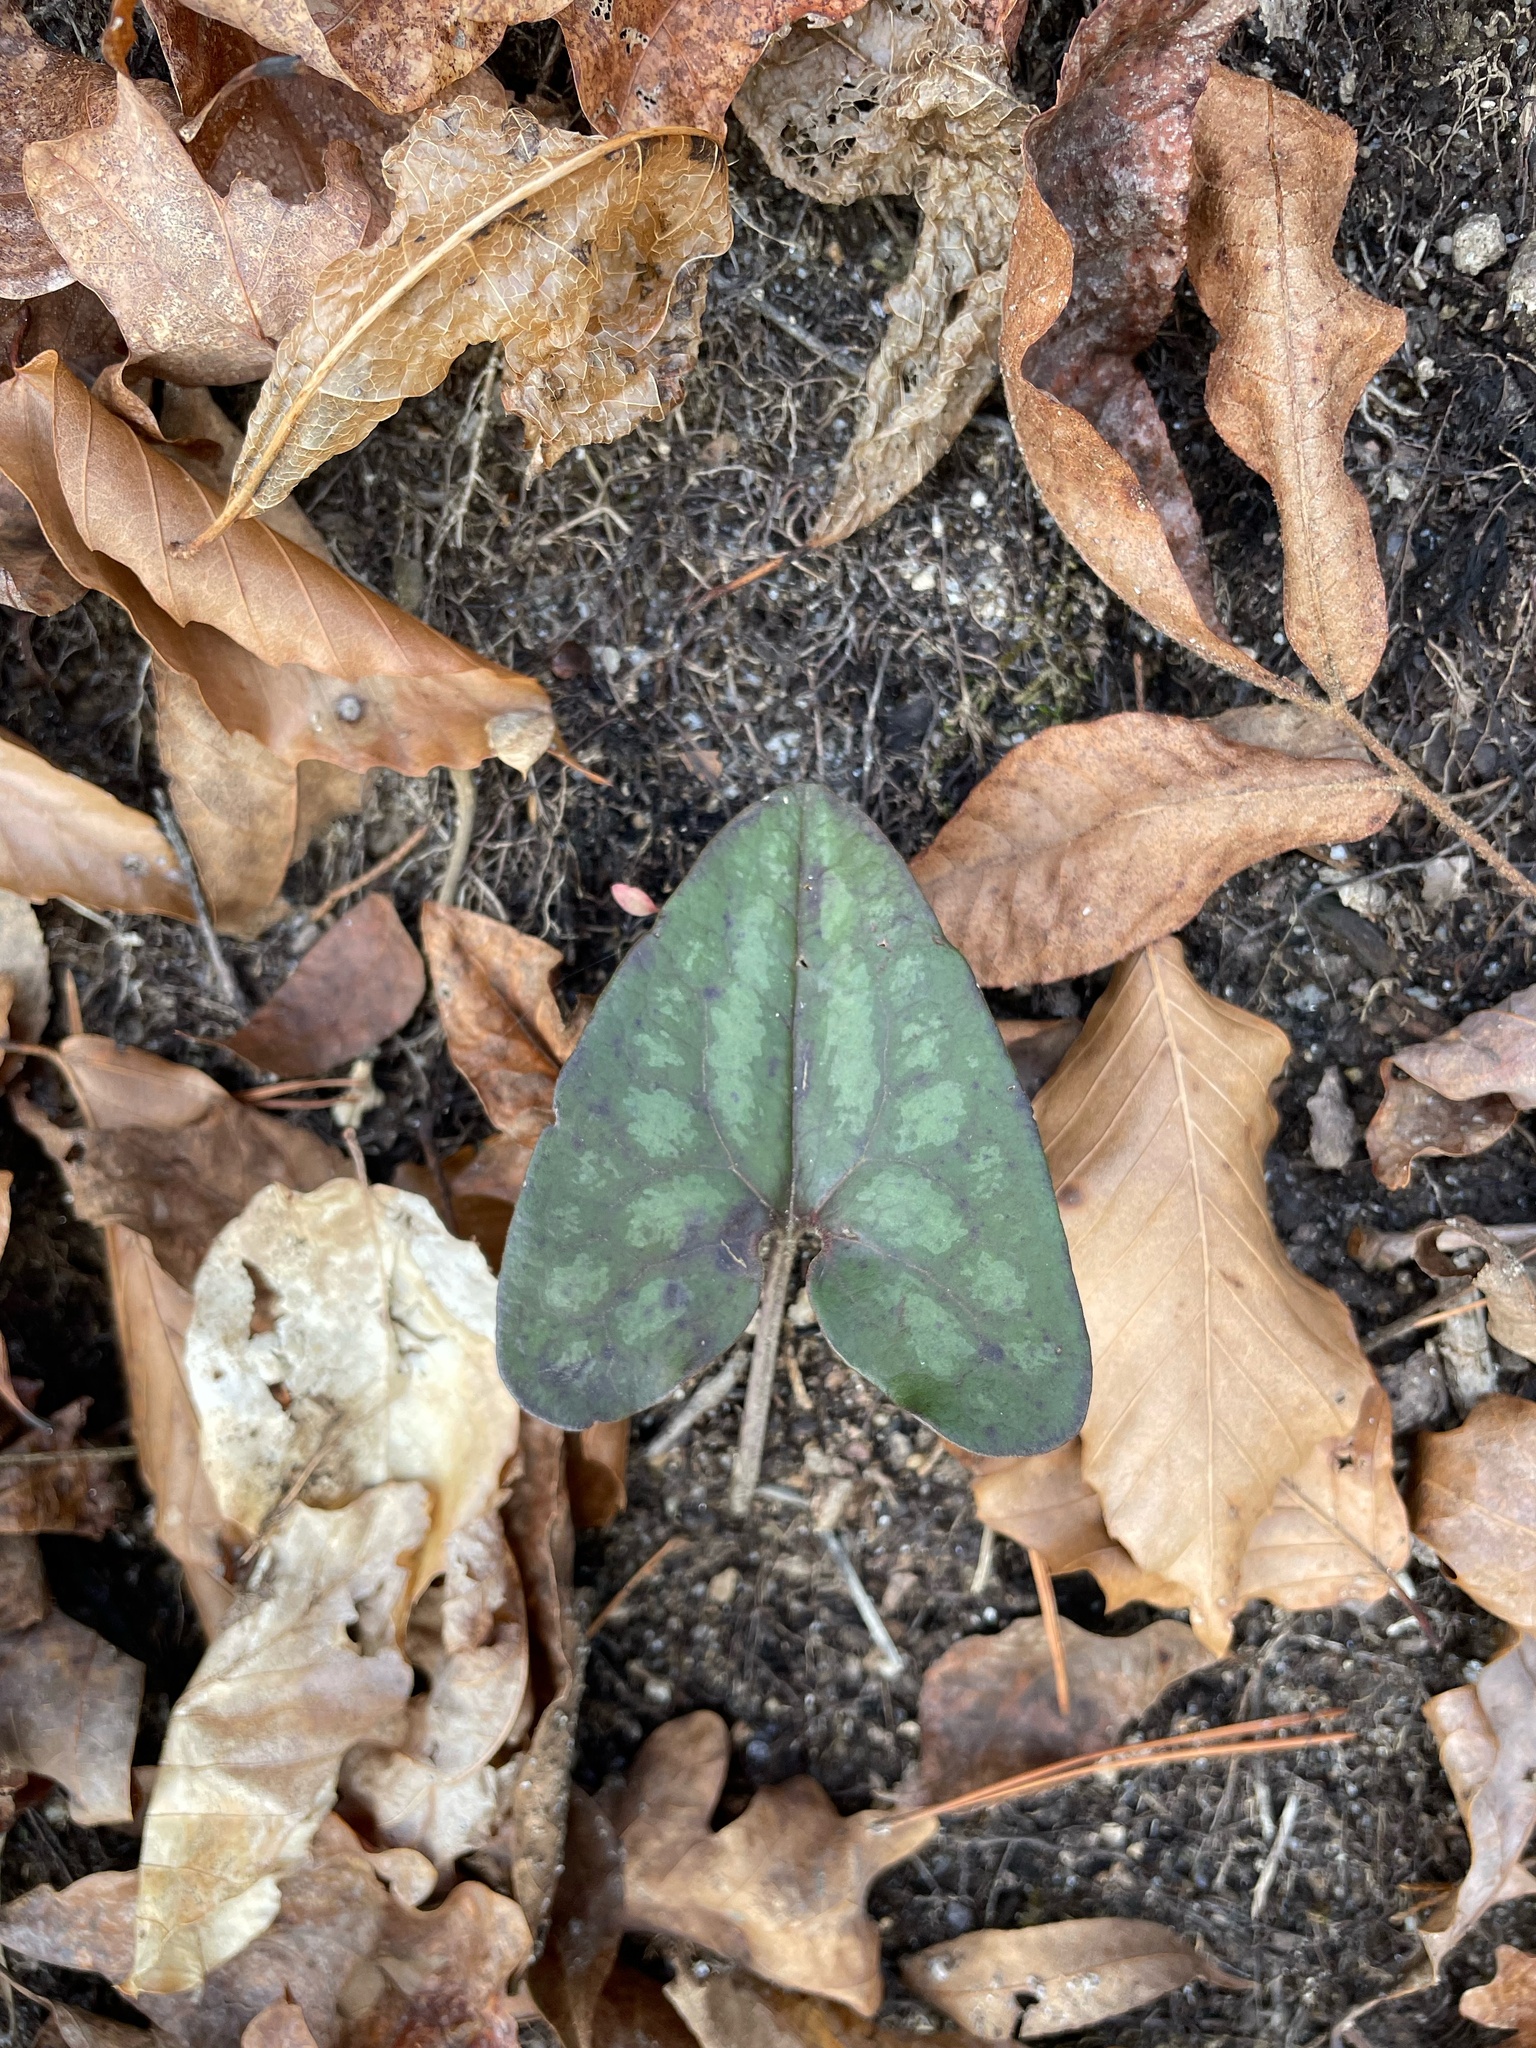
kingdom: Plantae
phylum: Tracheophyta
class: Magnoliopsida
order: Piperales
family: Aristolochiaceae
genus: Hexastylis
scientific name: Hexastylis arifolia
